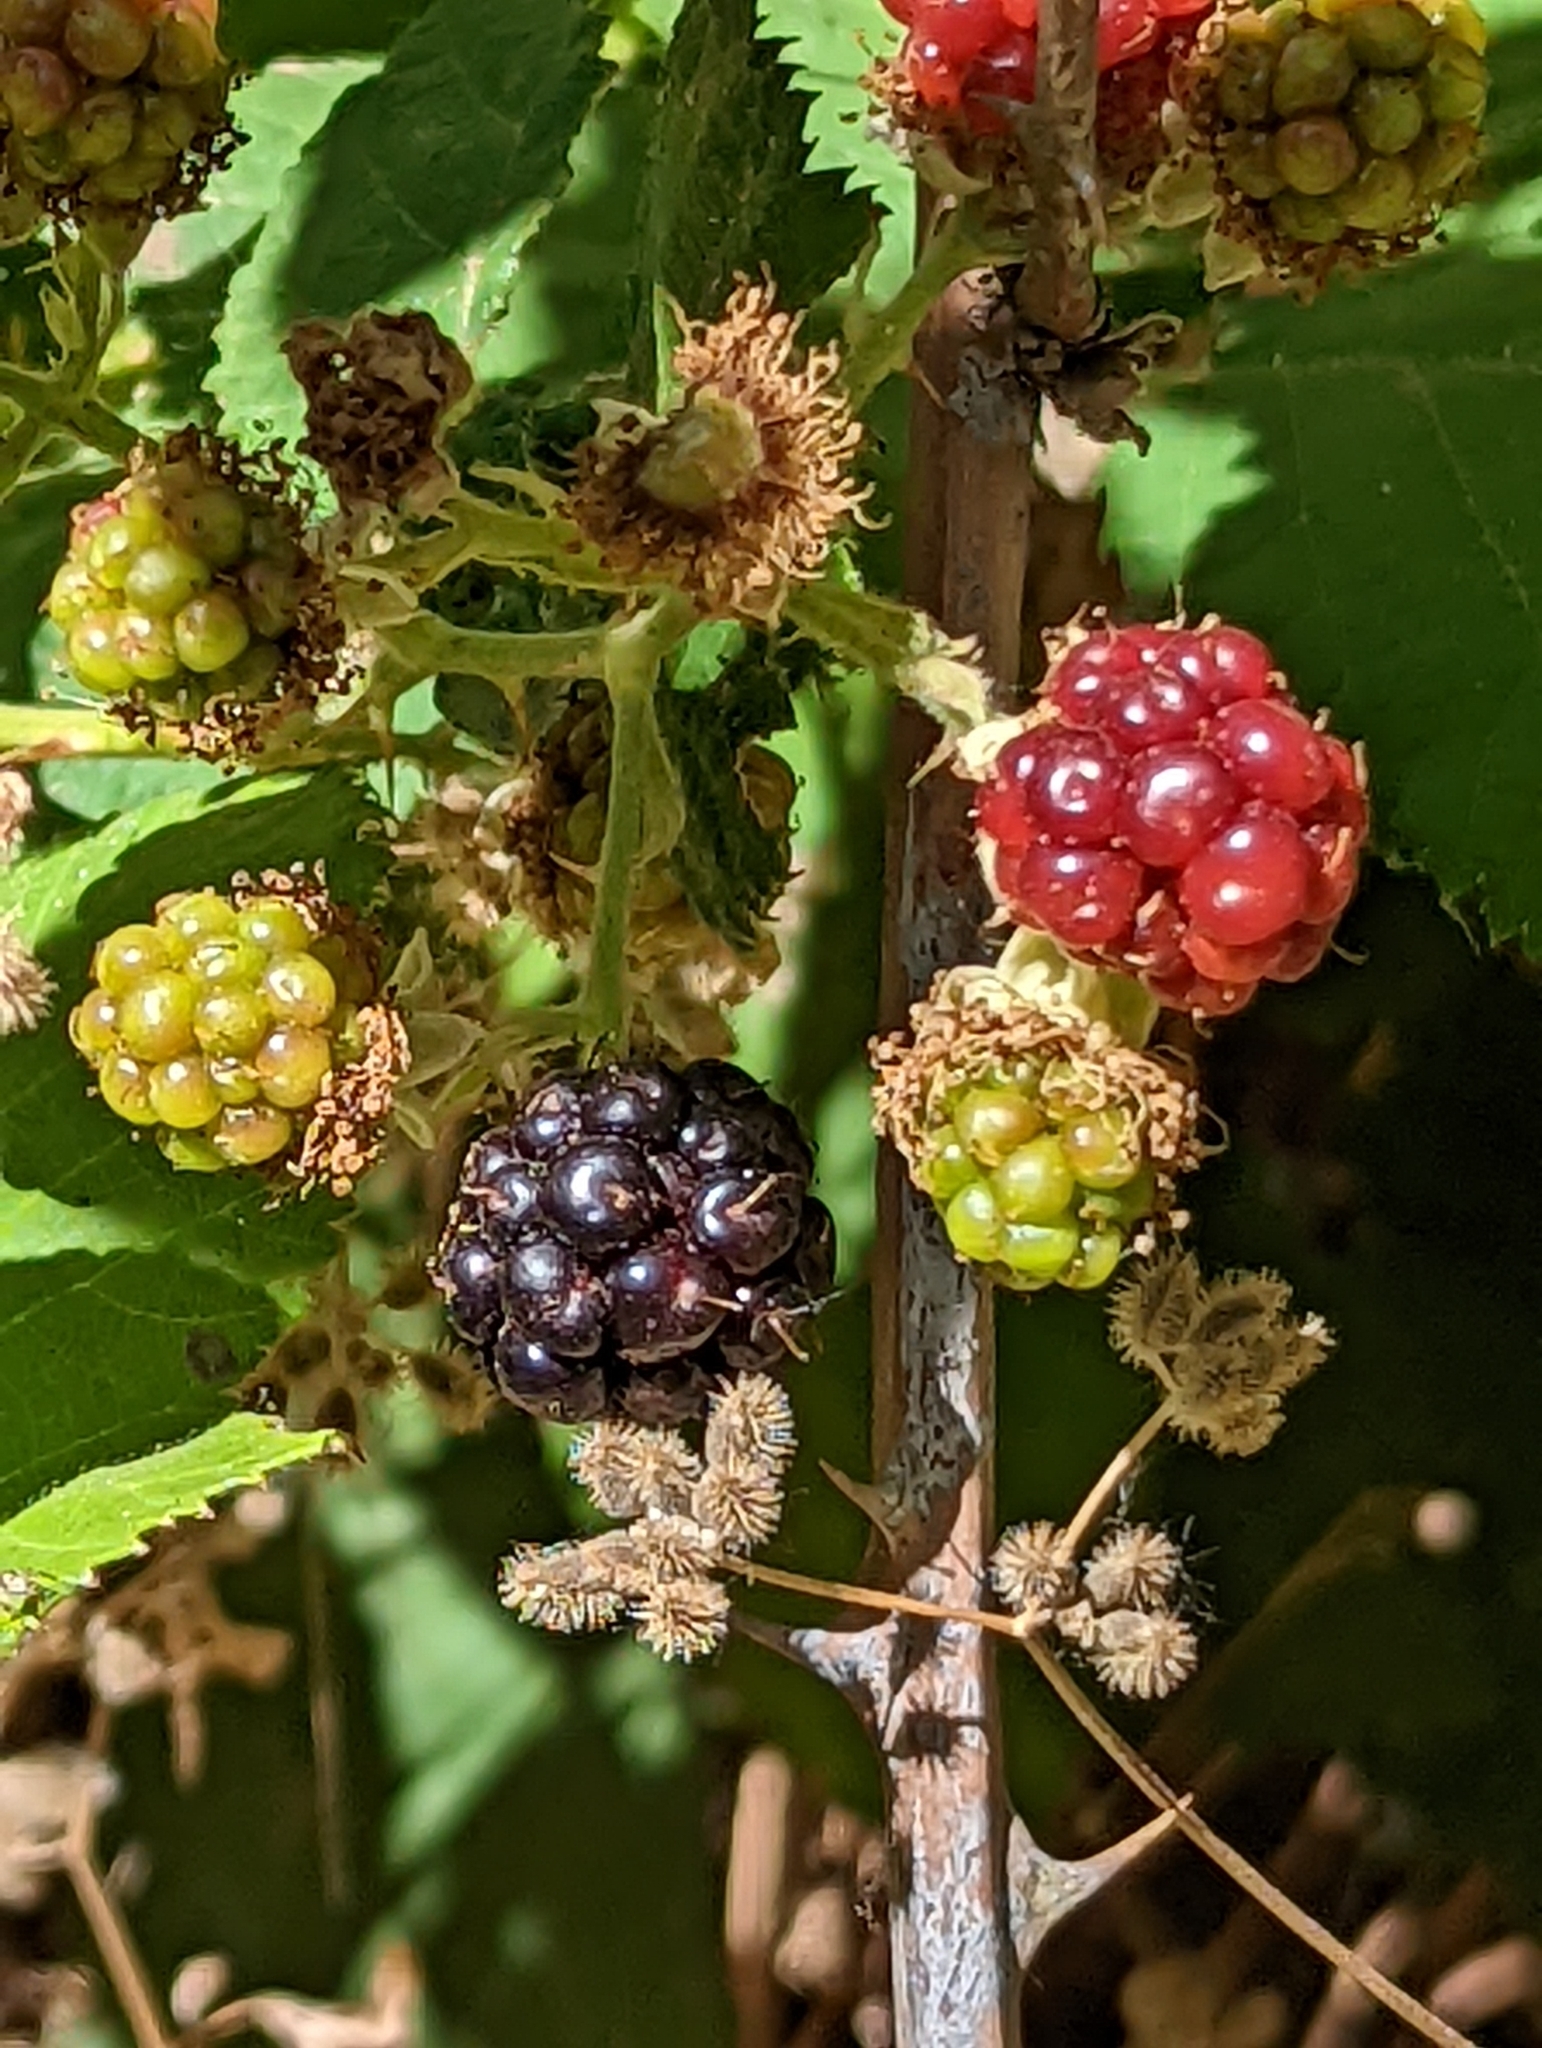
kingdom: Plantae
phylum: Tracheophyta
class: Magnoliopsida
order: Rosales
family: Rosaceae
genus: Rubus
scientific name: Rubus armeniacus
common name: Himalayan blackberry
